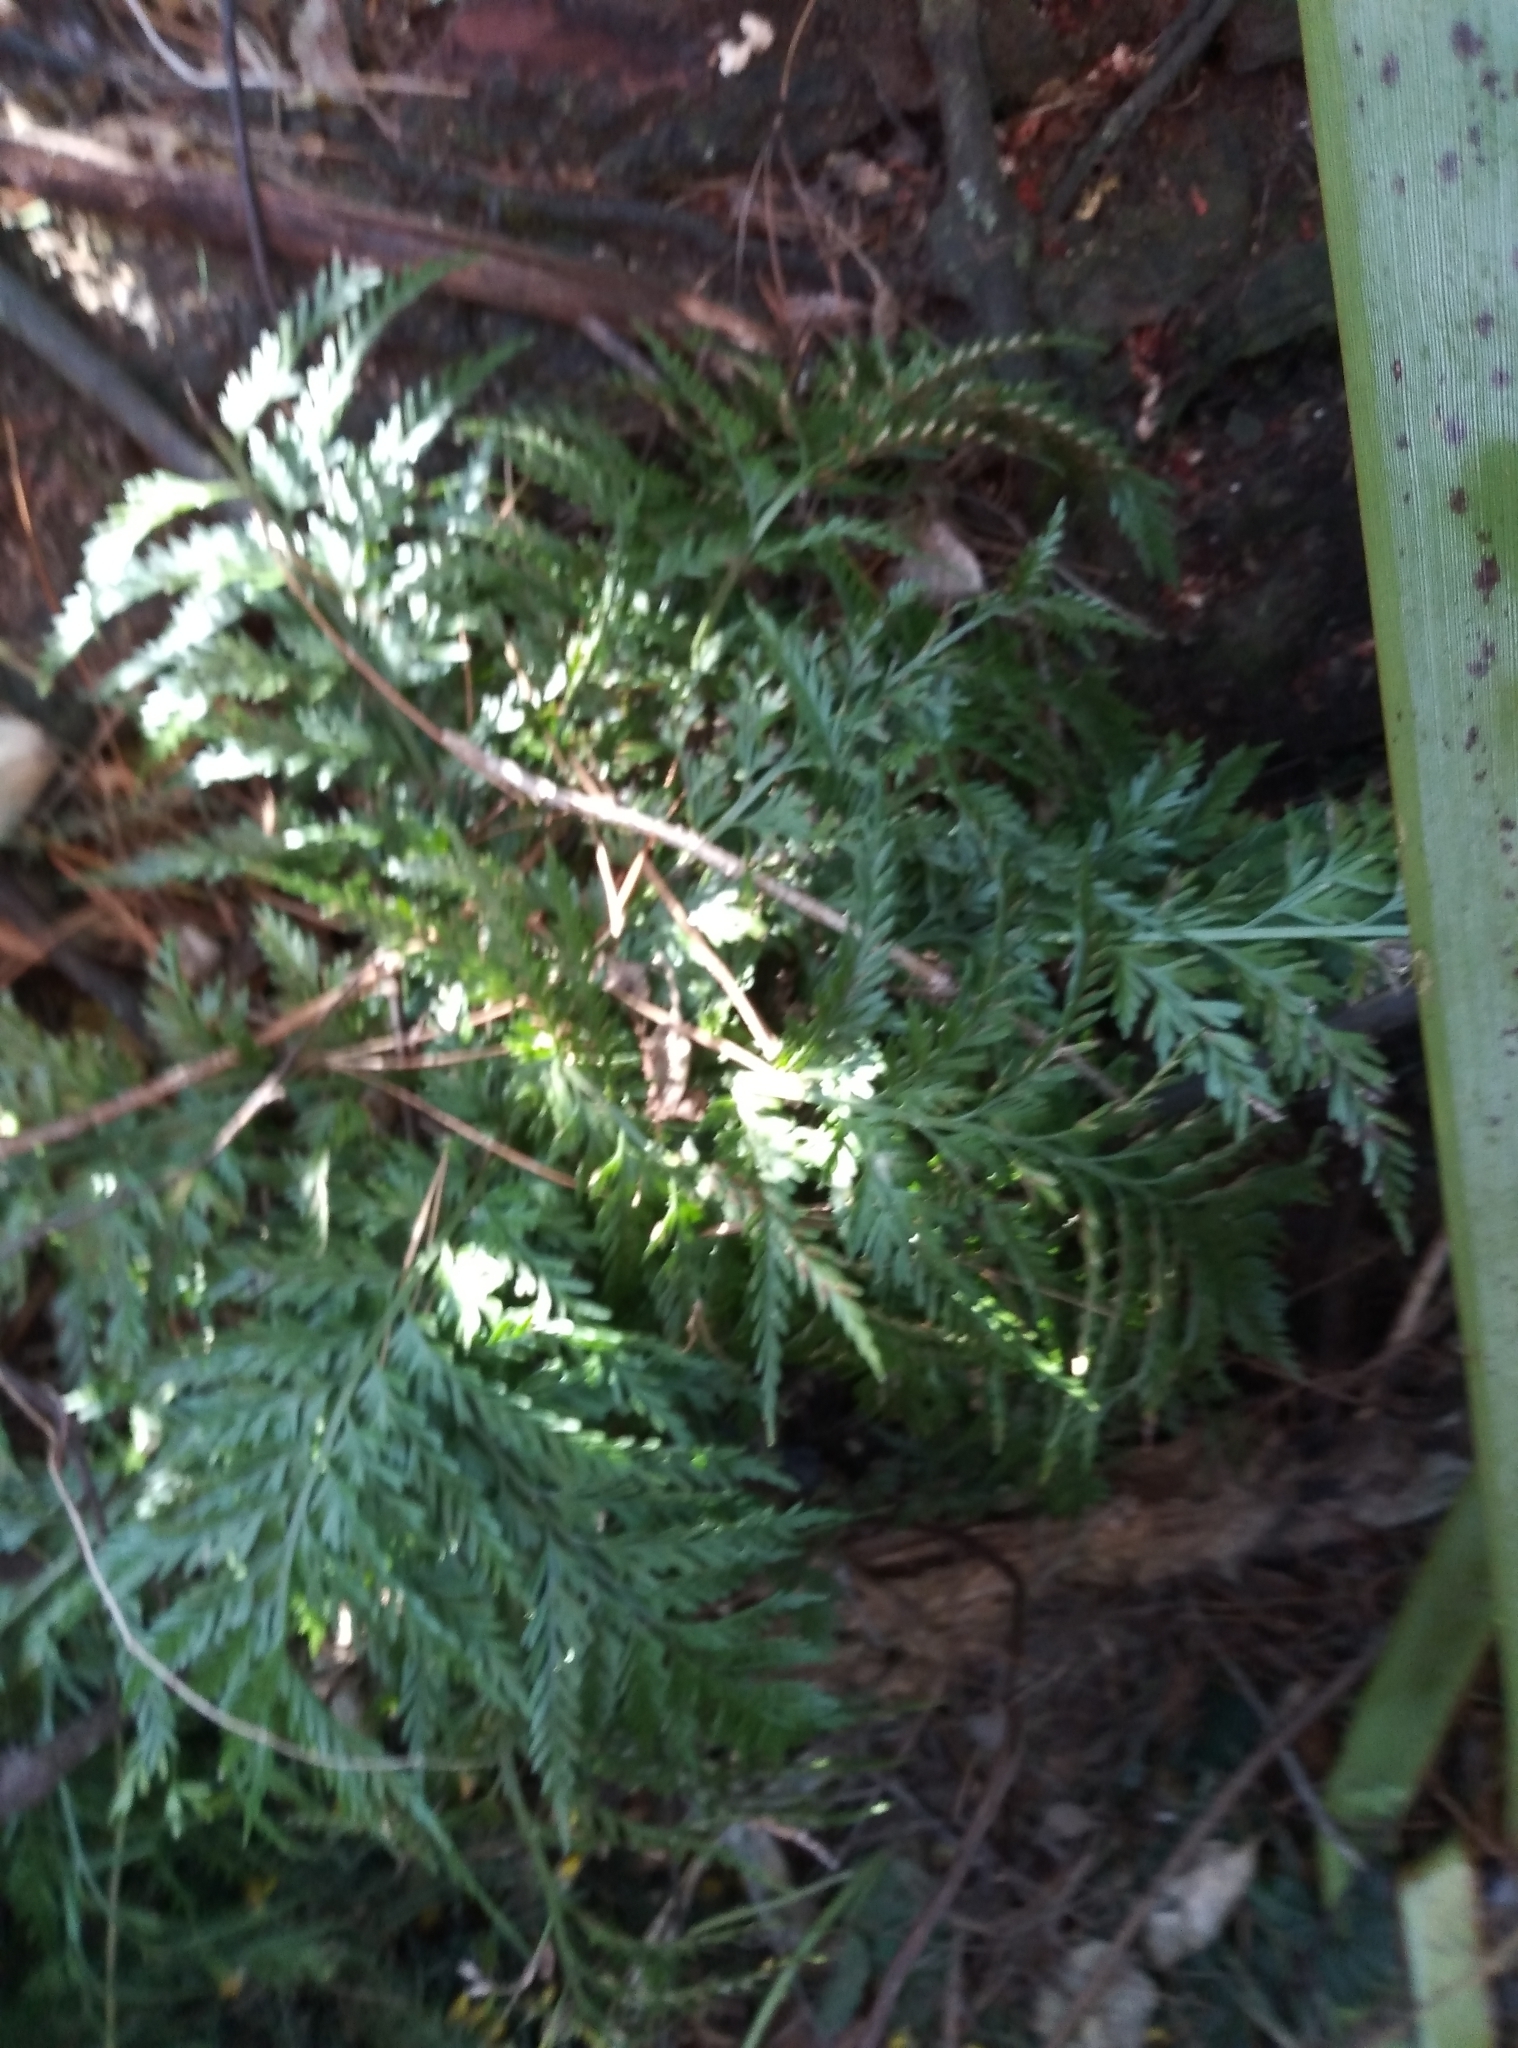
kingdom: Plantae
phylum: Tracheophyta
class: Polypodiopsida
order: Polypodiales
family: Aspleniaceae
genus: Asplenium
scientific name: Asplenium appendiculatum
